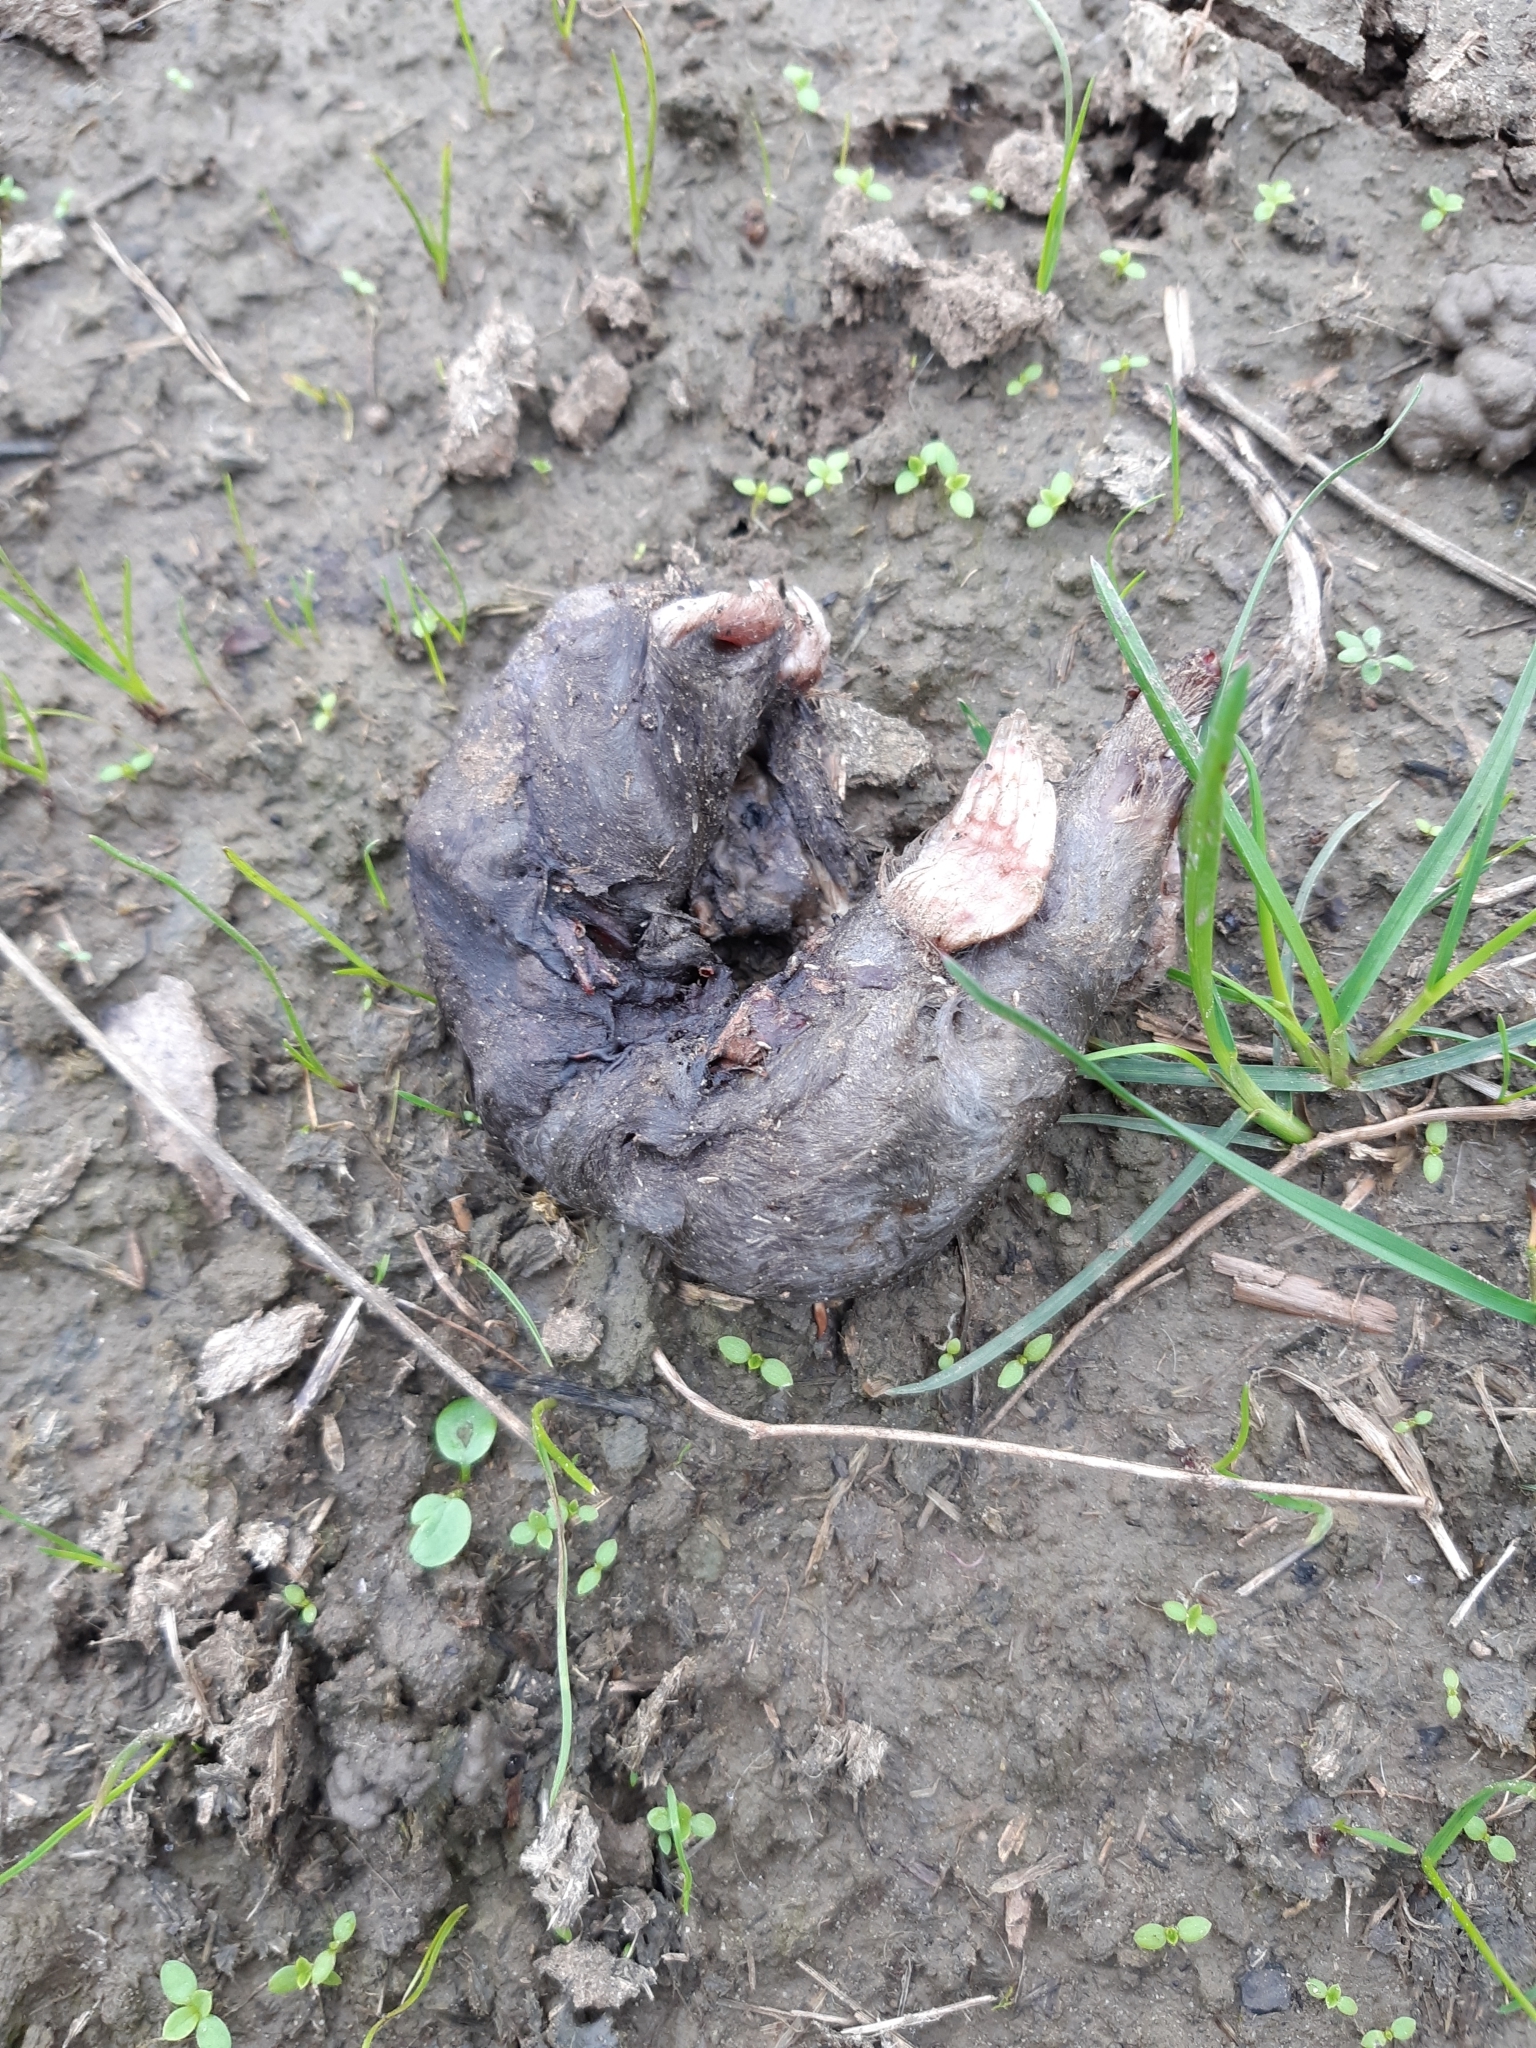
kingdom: Animalia
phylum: Chordata
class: Mammalia
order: Soricomorpha
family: Talpidae
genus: Talpa
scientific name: Talpa europaea
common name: European mole
